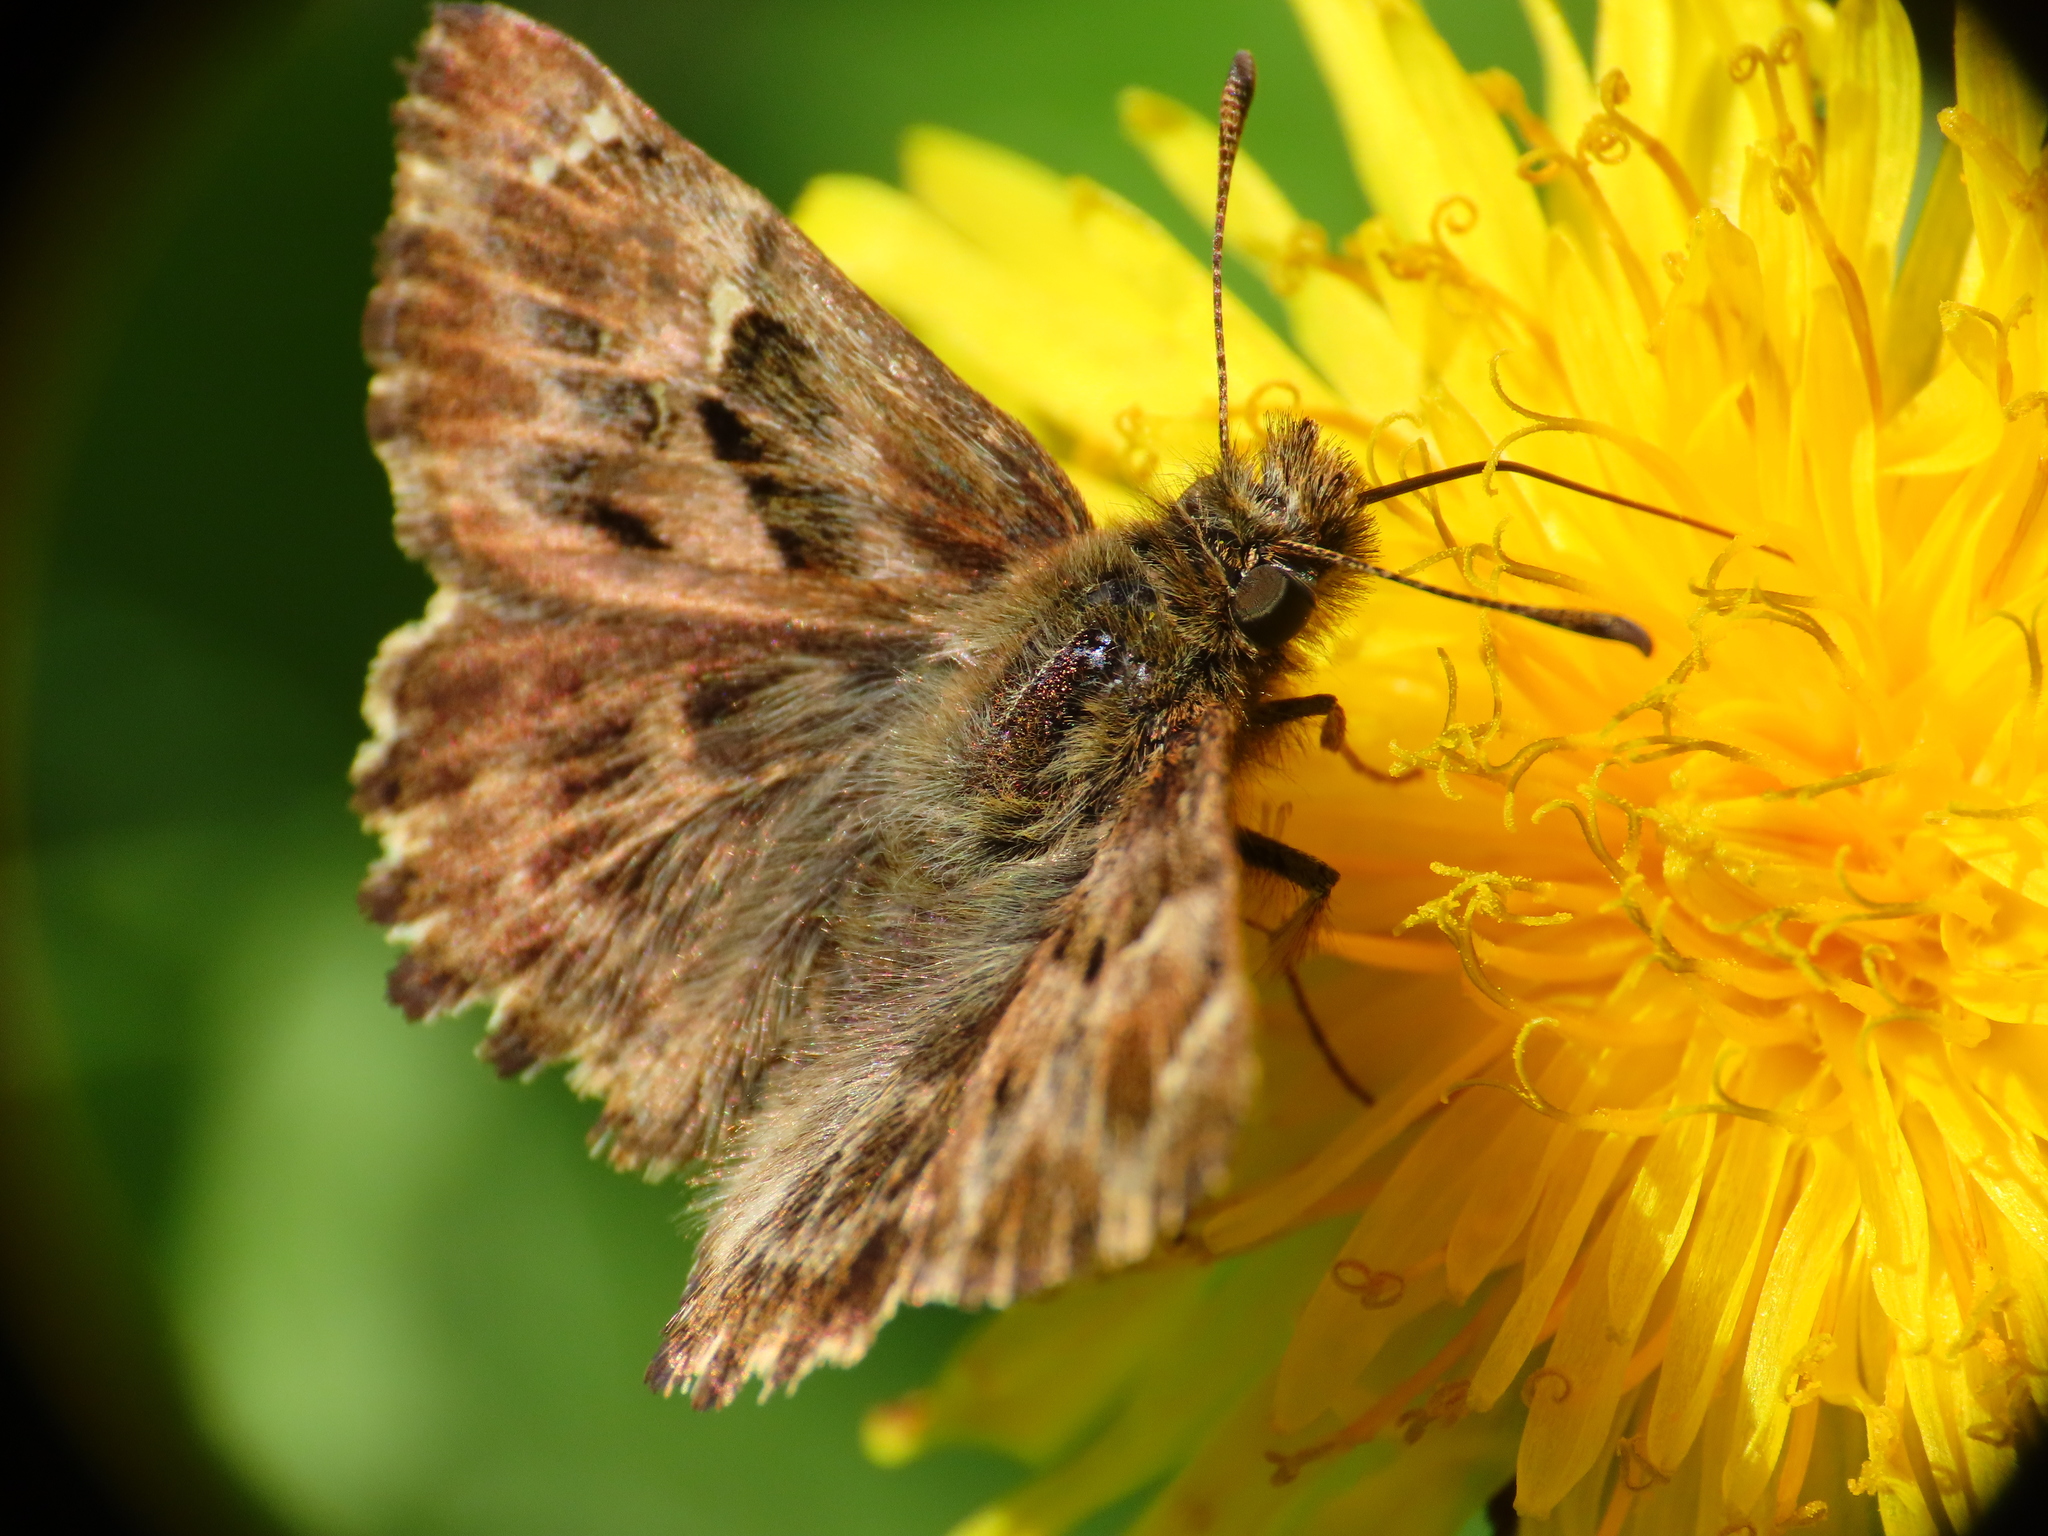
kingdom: Animalia
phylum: Arthropoda
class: Insecta
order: Lepidoptera
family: Hesperiidae
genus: Carcharodus
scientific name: Carcharodus alceae
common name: Mallow skipper
